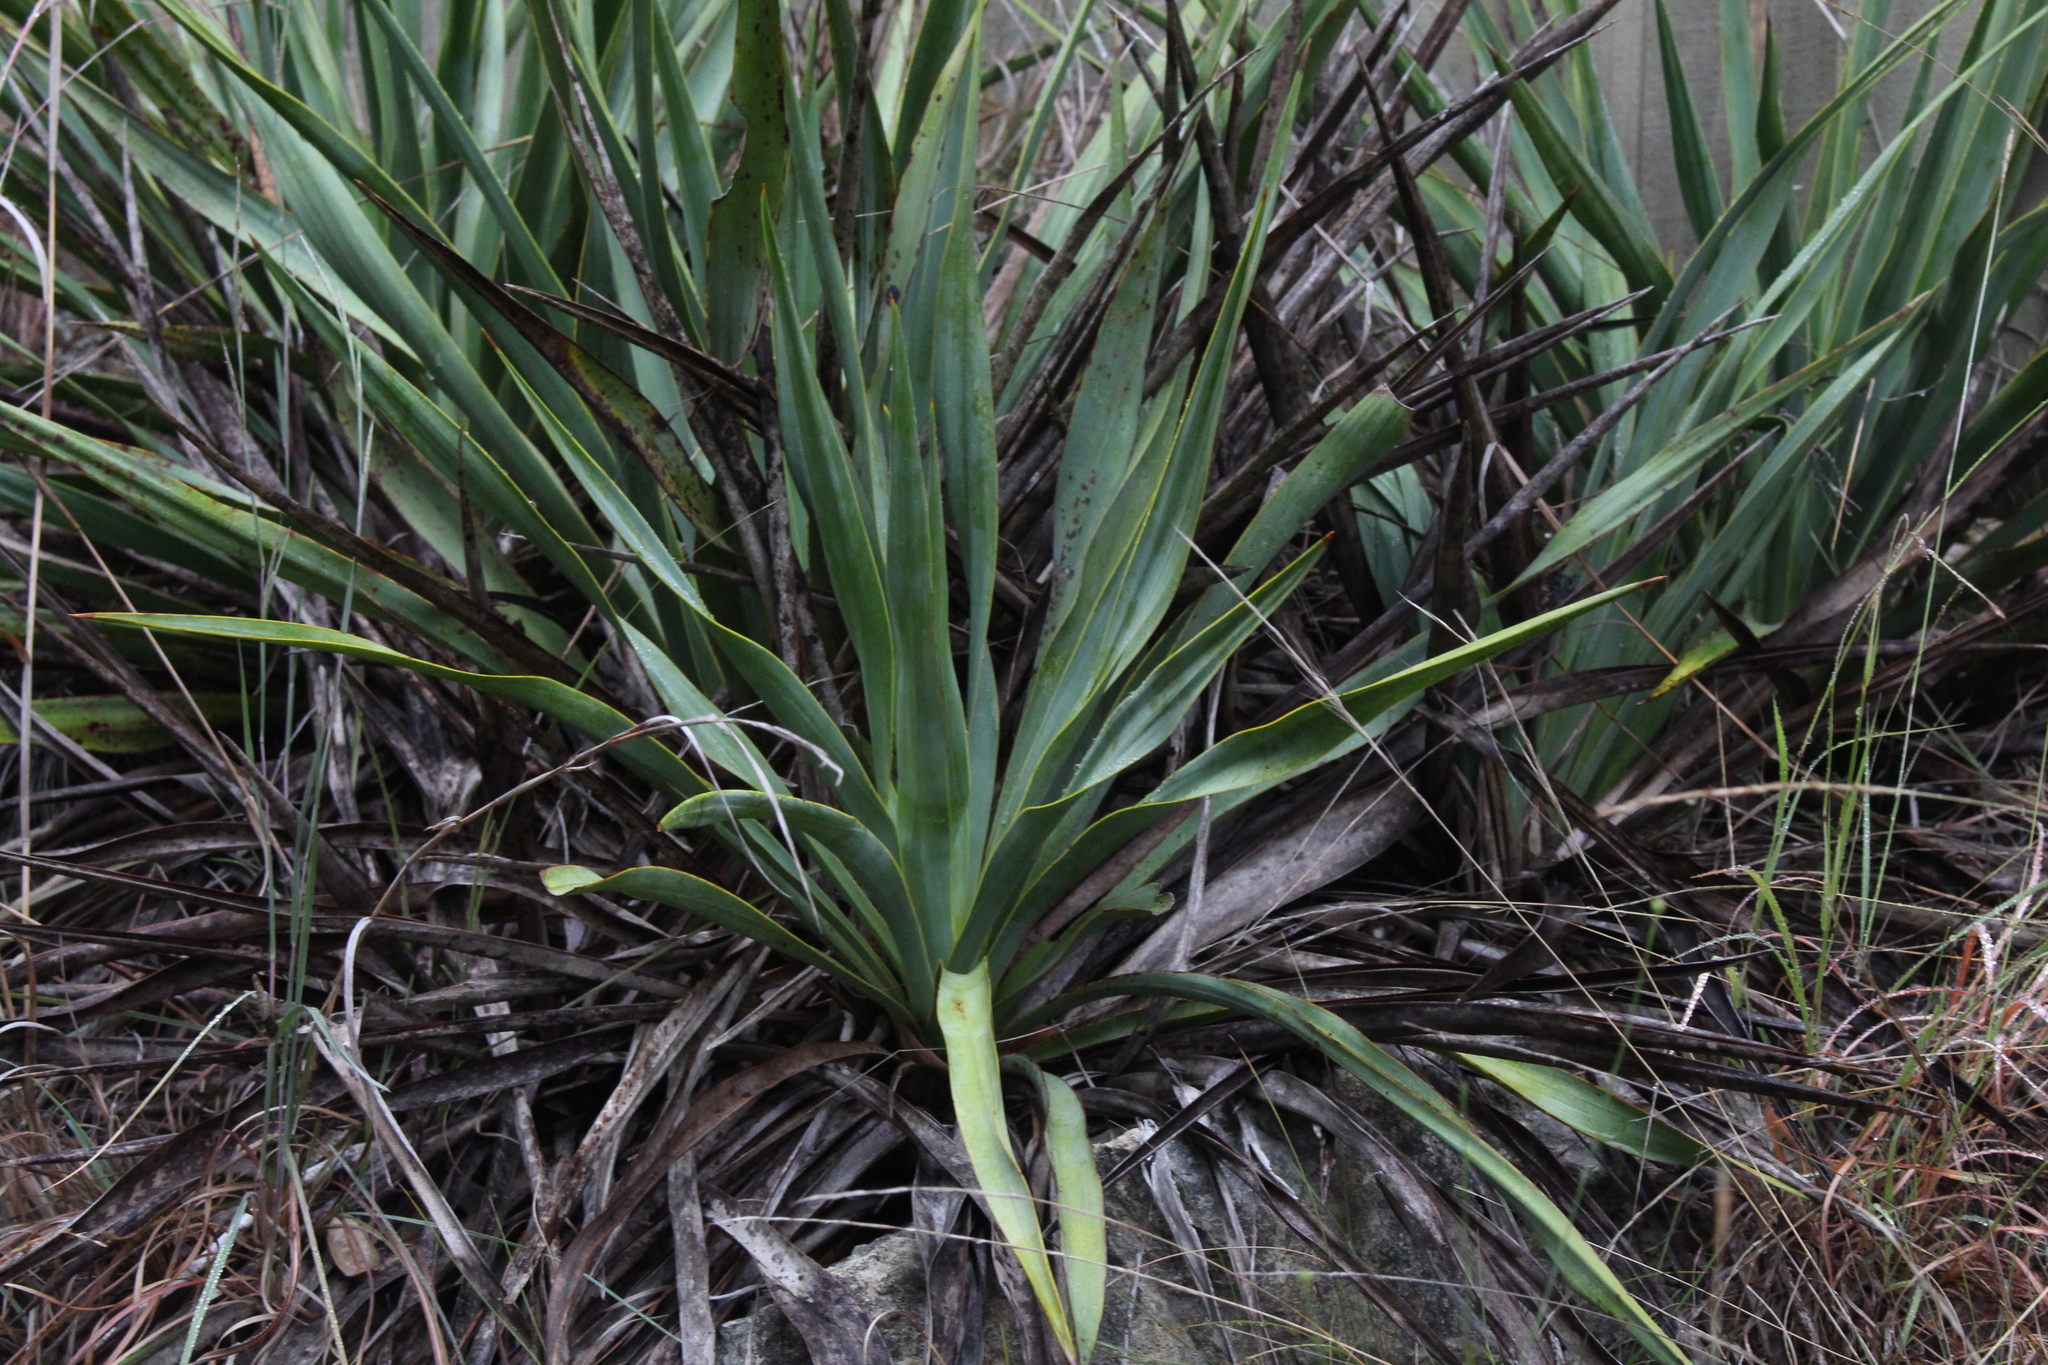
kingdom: Plantae
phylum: Tracheophyta
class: Liliopsida
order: Asparagales
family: Asparagaceae
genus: Yucca
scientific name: Yucca rupicola
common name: Twisted-leaf spanish-dagger
